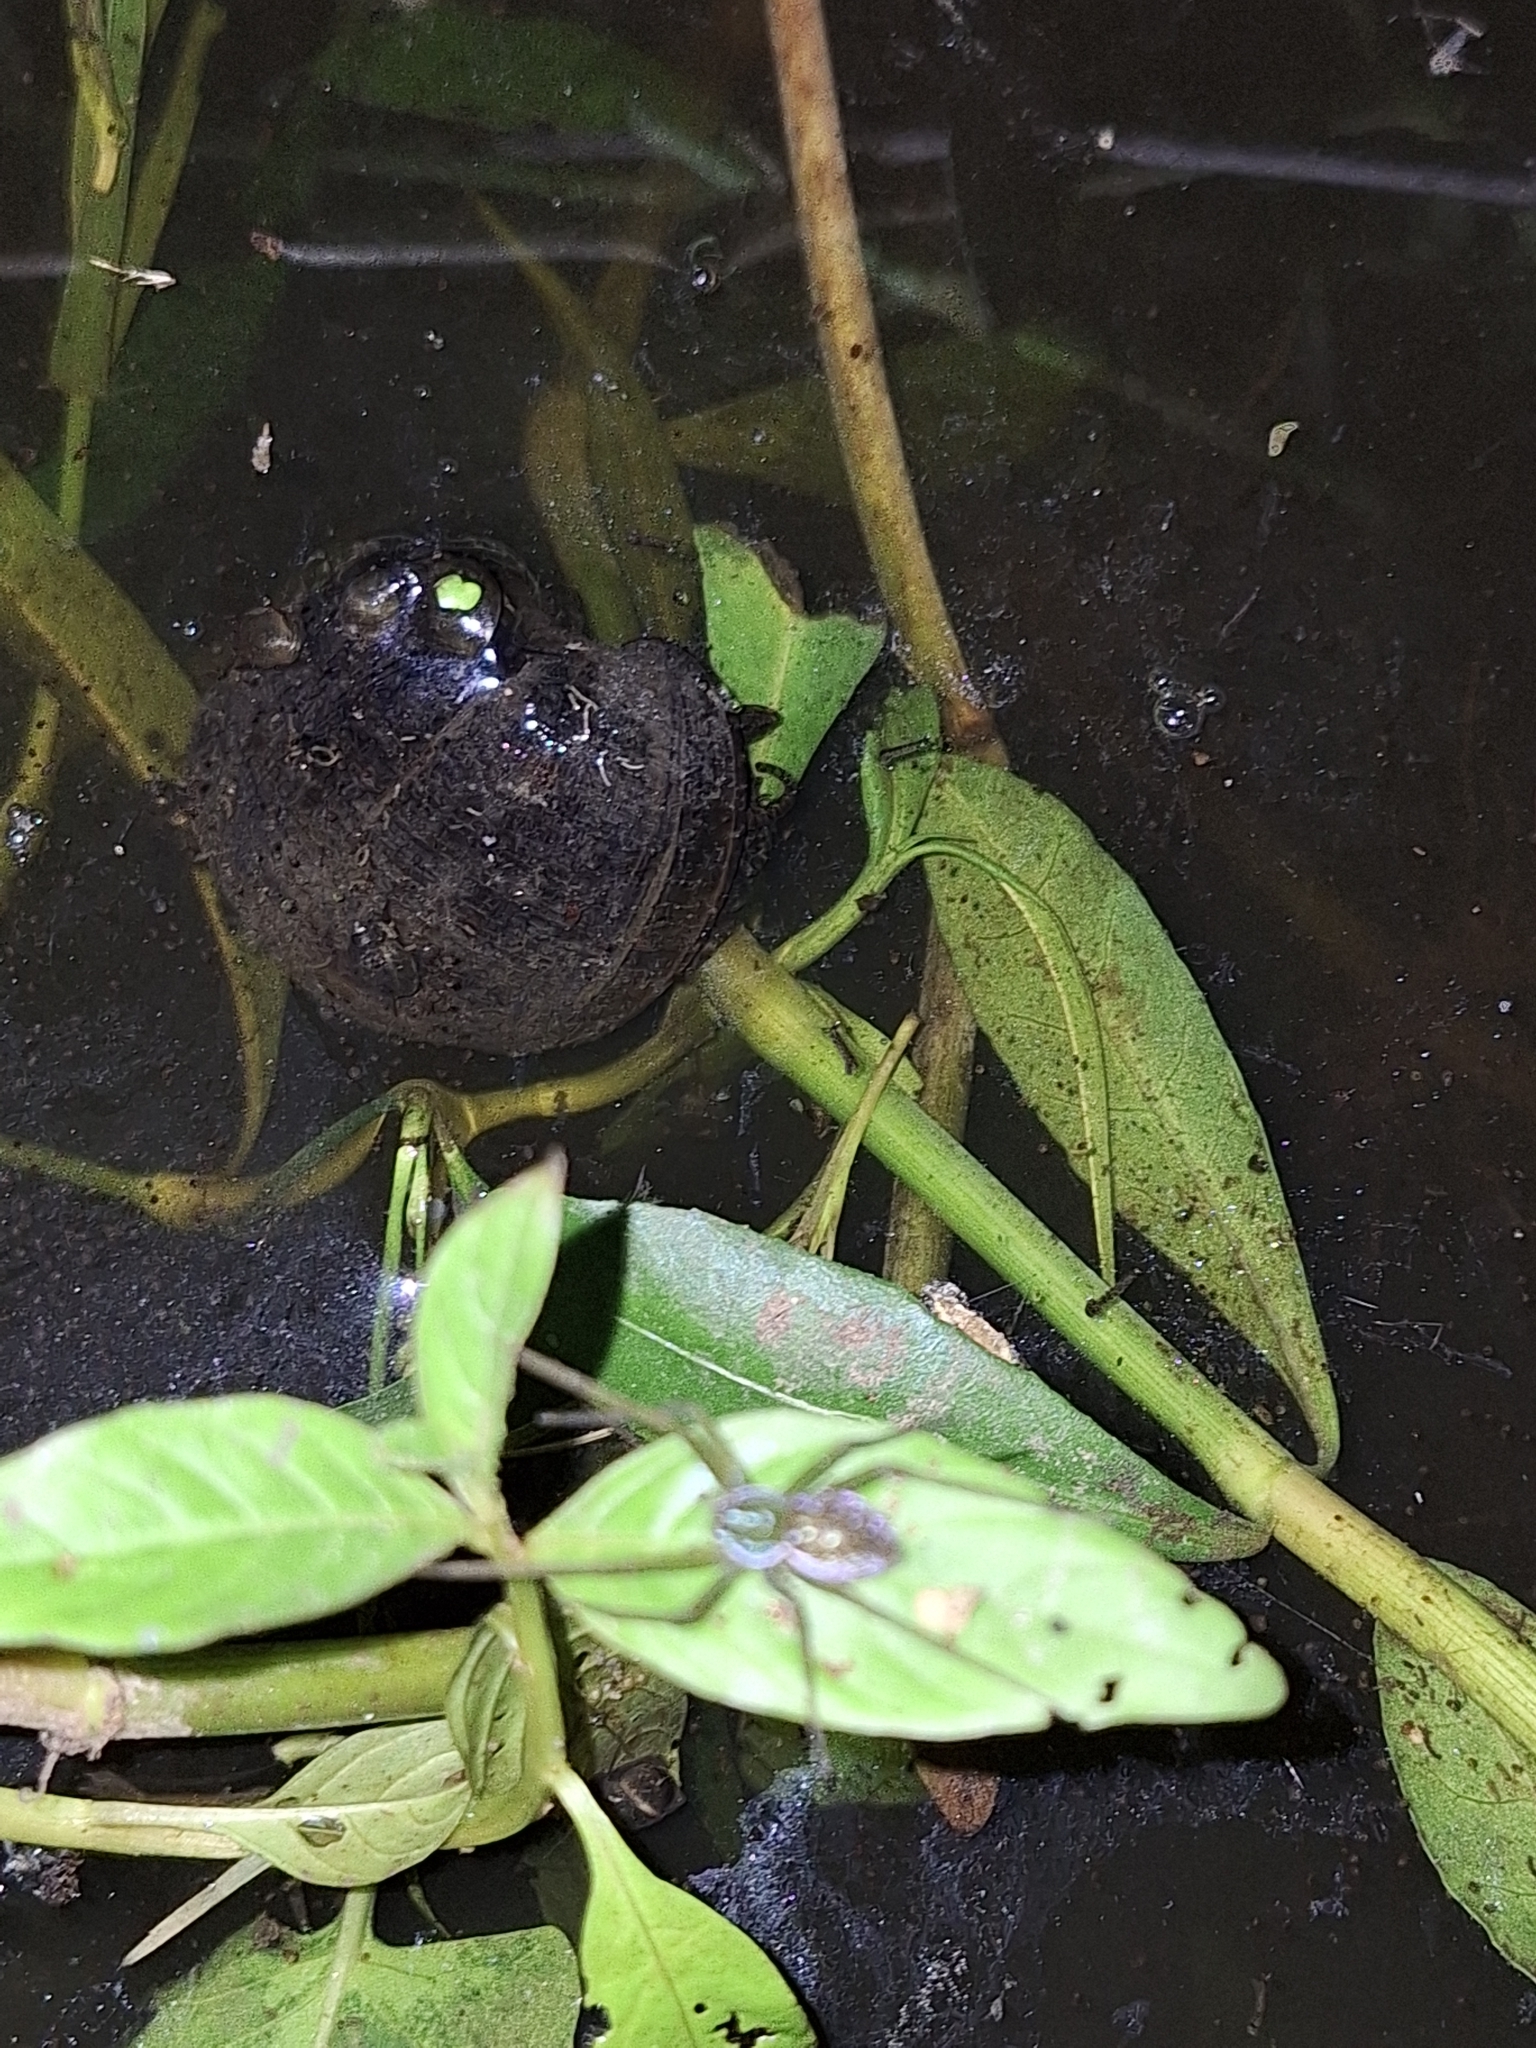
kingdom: Animalia
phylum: Arthropoda
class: Arachnida
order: Araneae
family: Pisauridae
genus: Thaumasia
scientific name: Thaumasia velox
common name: Nursery web spiders
